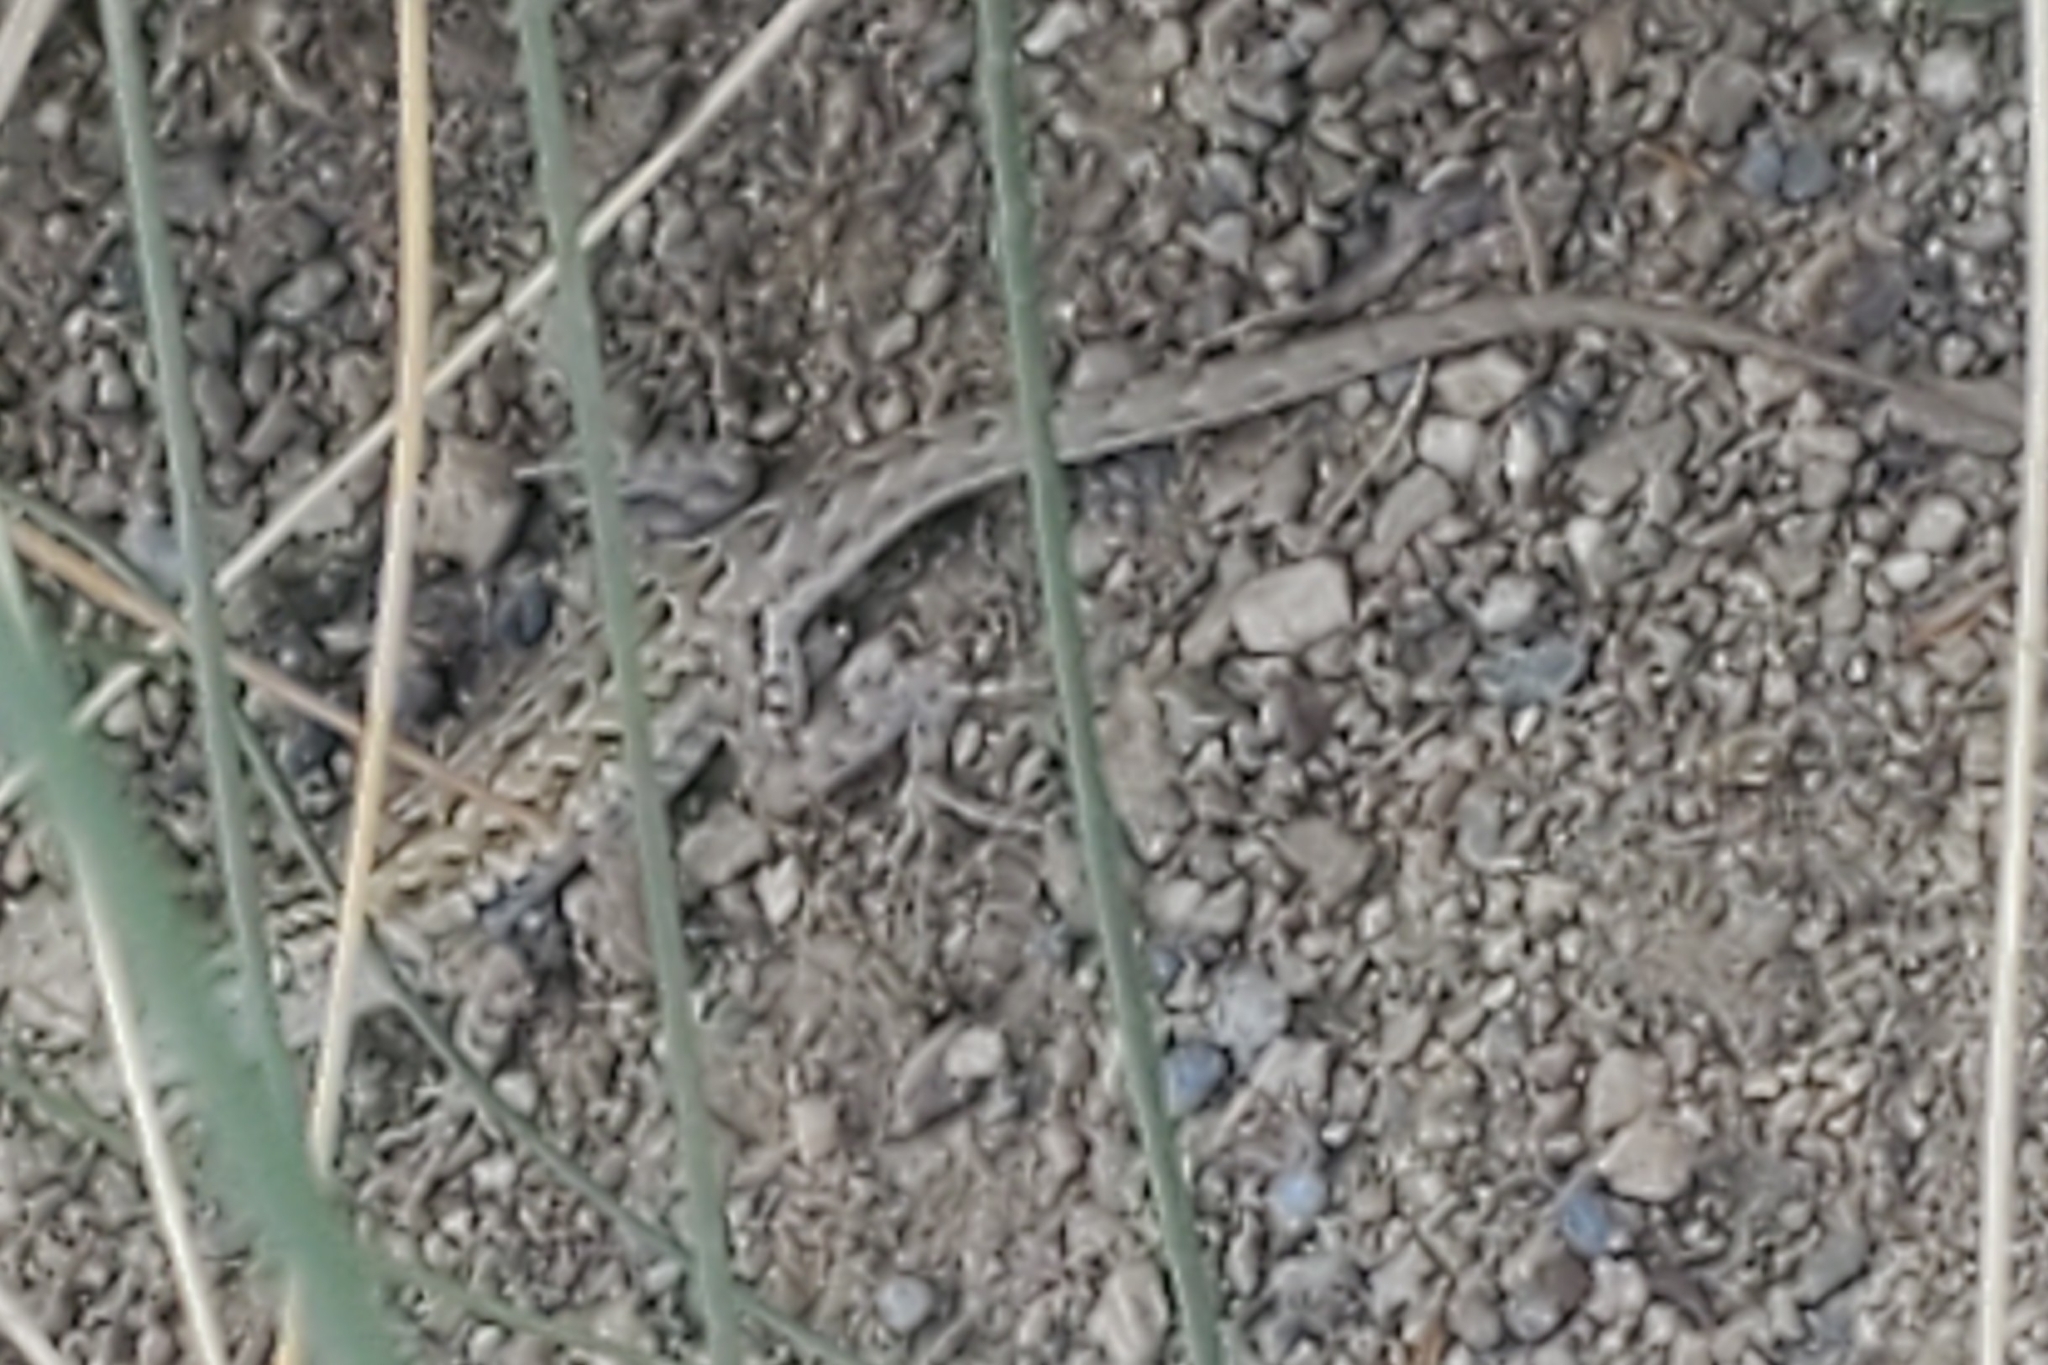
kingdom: Animalia
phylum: Chordata
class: Squamata
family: Phrynosomatidae
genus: Uta
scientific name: Uta stansburiana
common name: Side-blotched lizard
